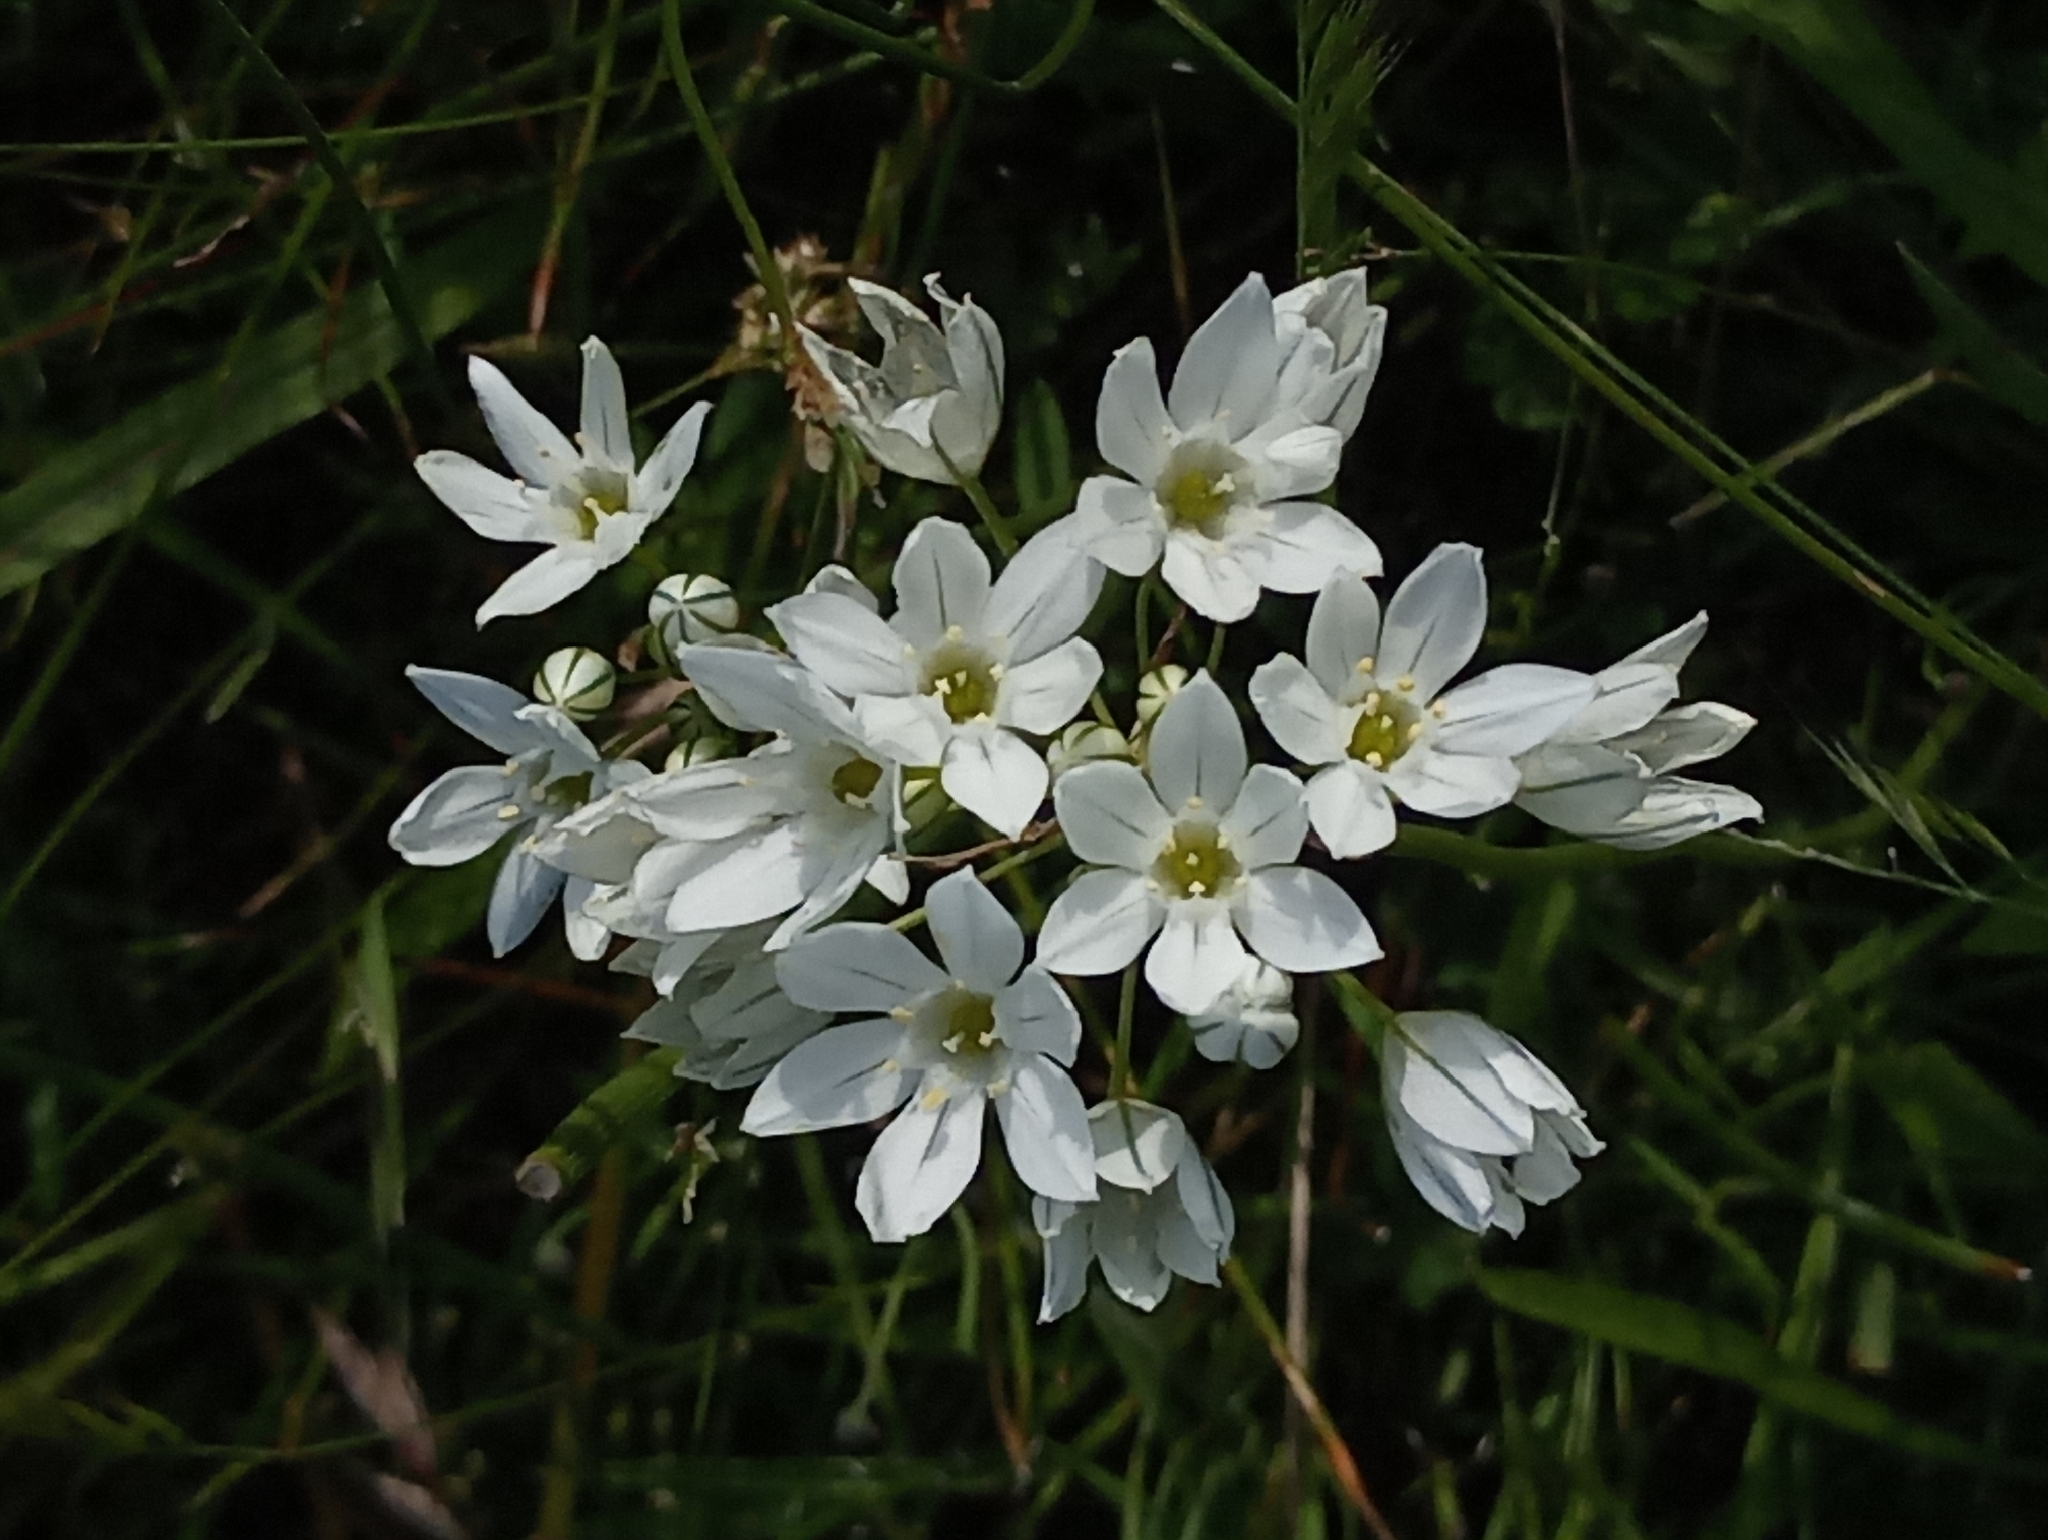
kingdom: Plantae
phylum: Tracheophyta
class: Liliopsida
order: Asparagales
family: Asparagaceae
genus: Triteleia
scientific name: Triteleia hyacinthina
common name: White brodiaea
